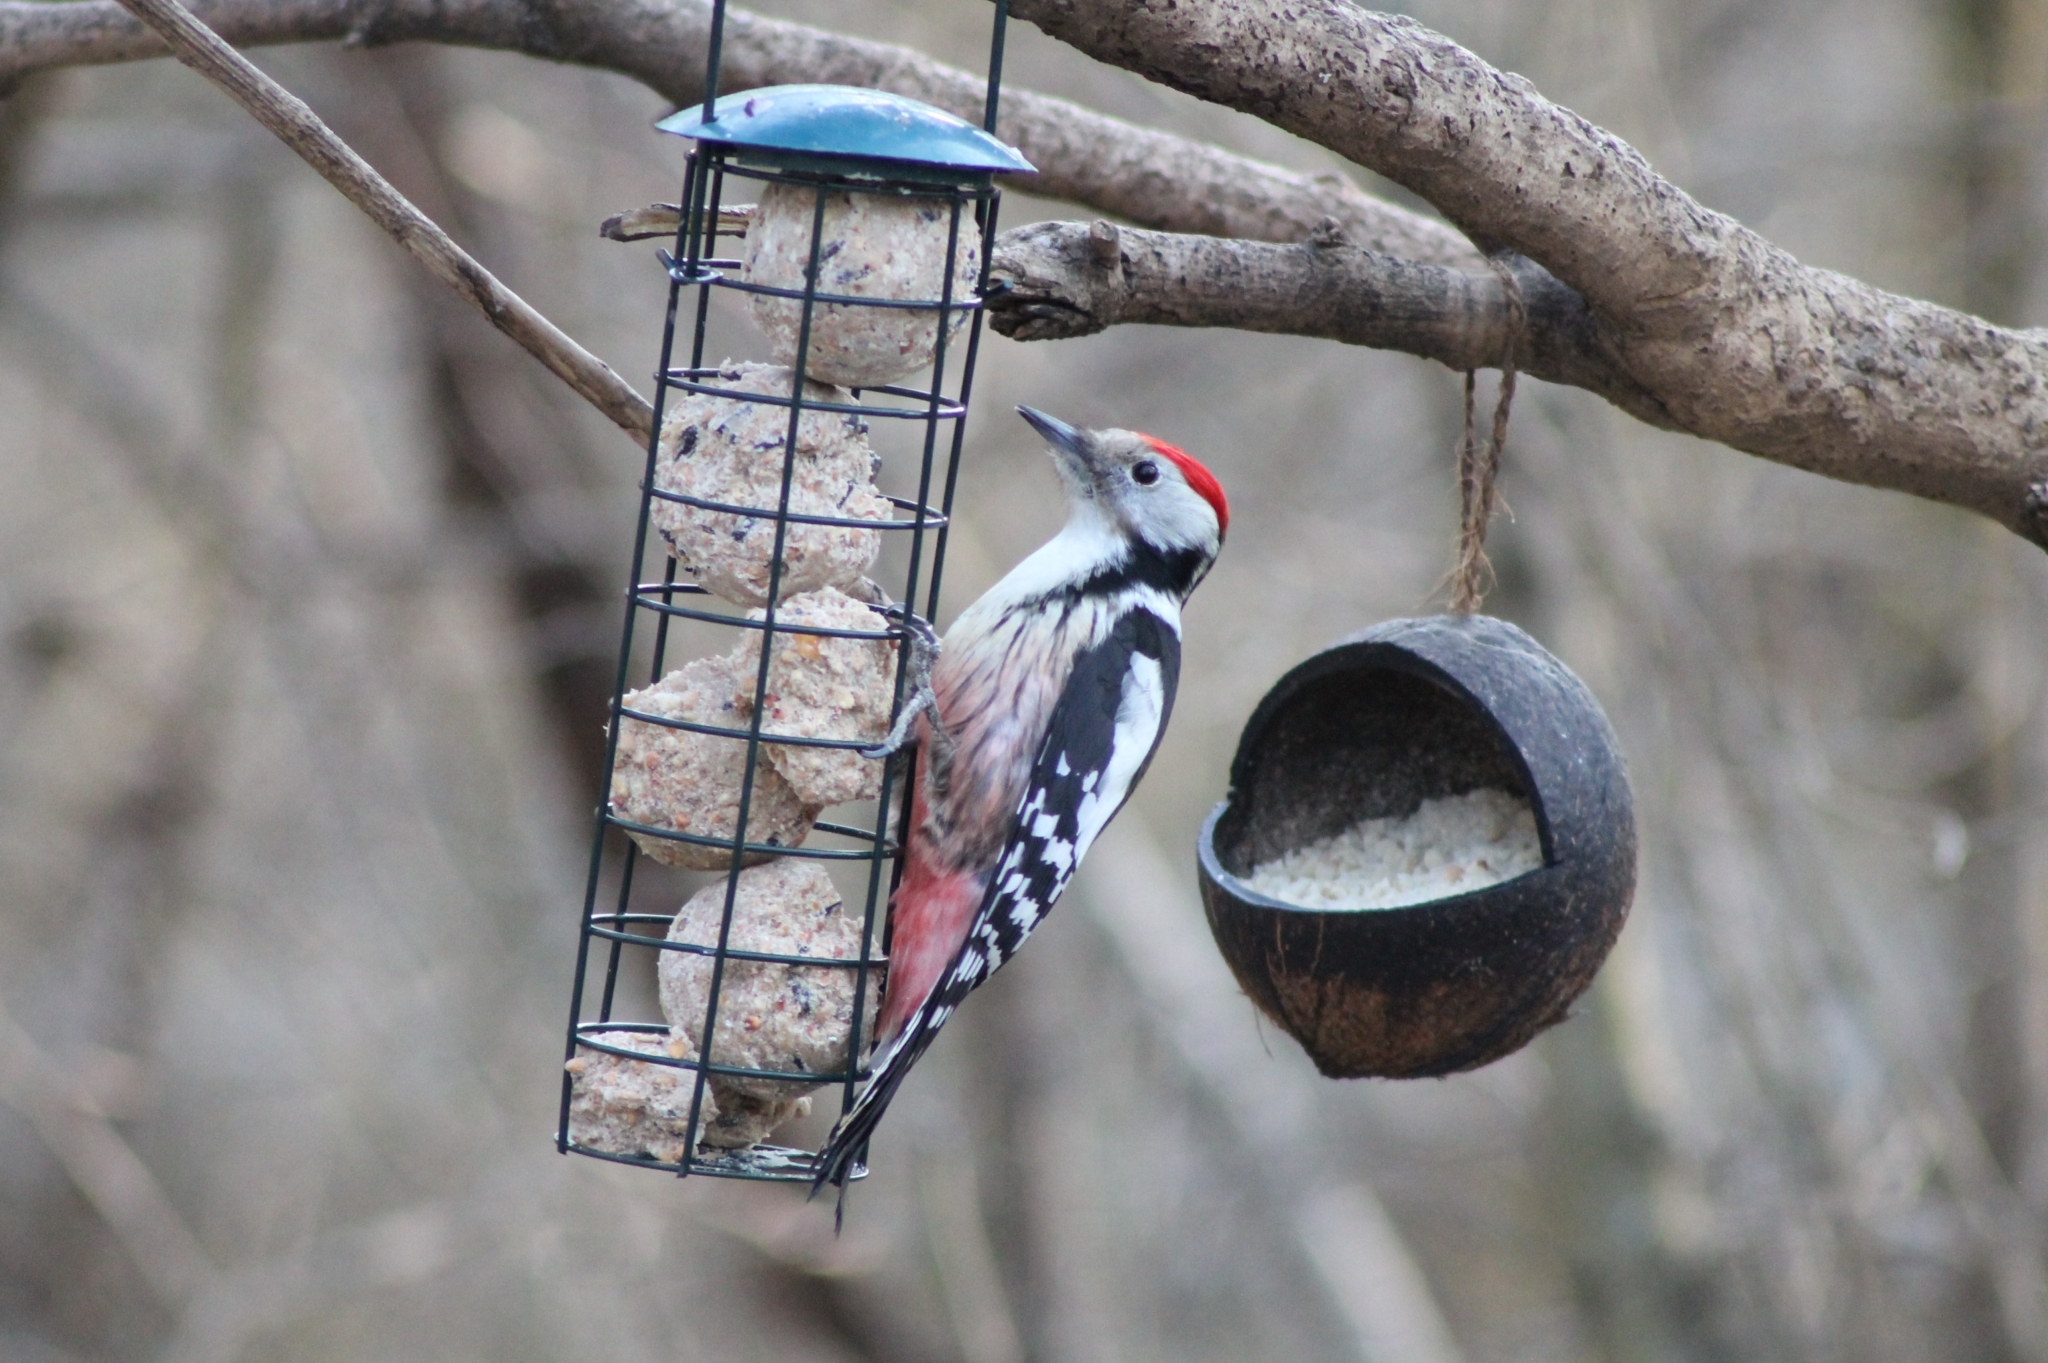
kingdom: Animalia
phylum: Chordata
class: Aves
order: Piciformes
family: Picidae
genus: Dendrocoptes
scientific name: Dendrocoptes medius
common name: Middle spotted woodpecker
